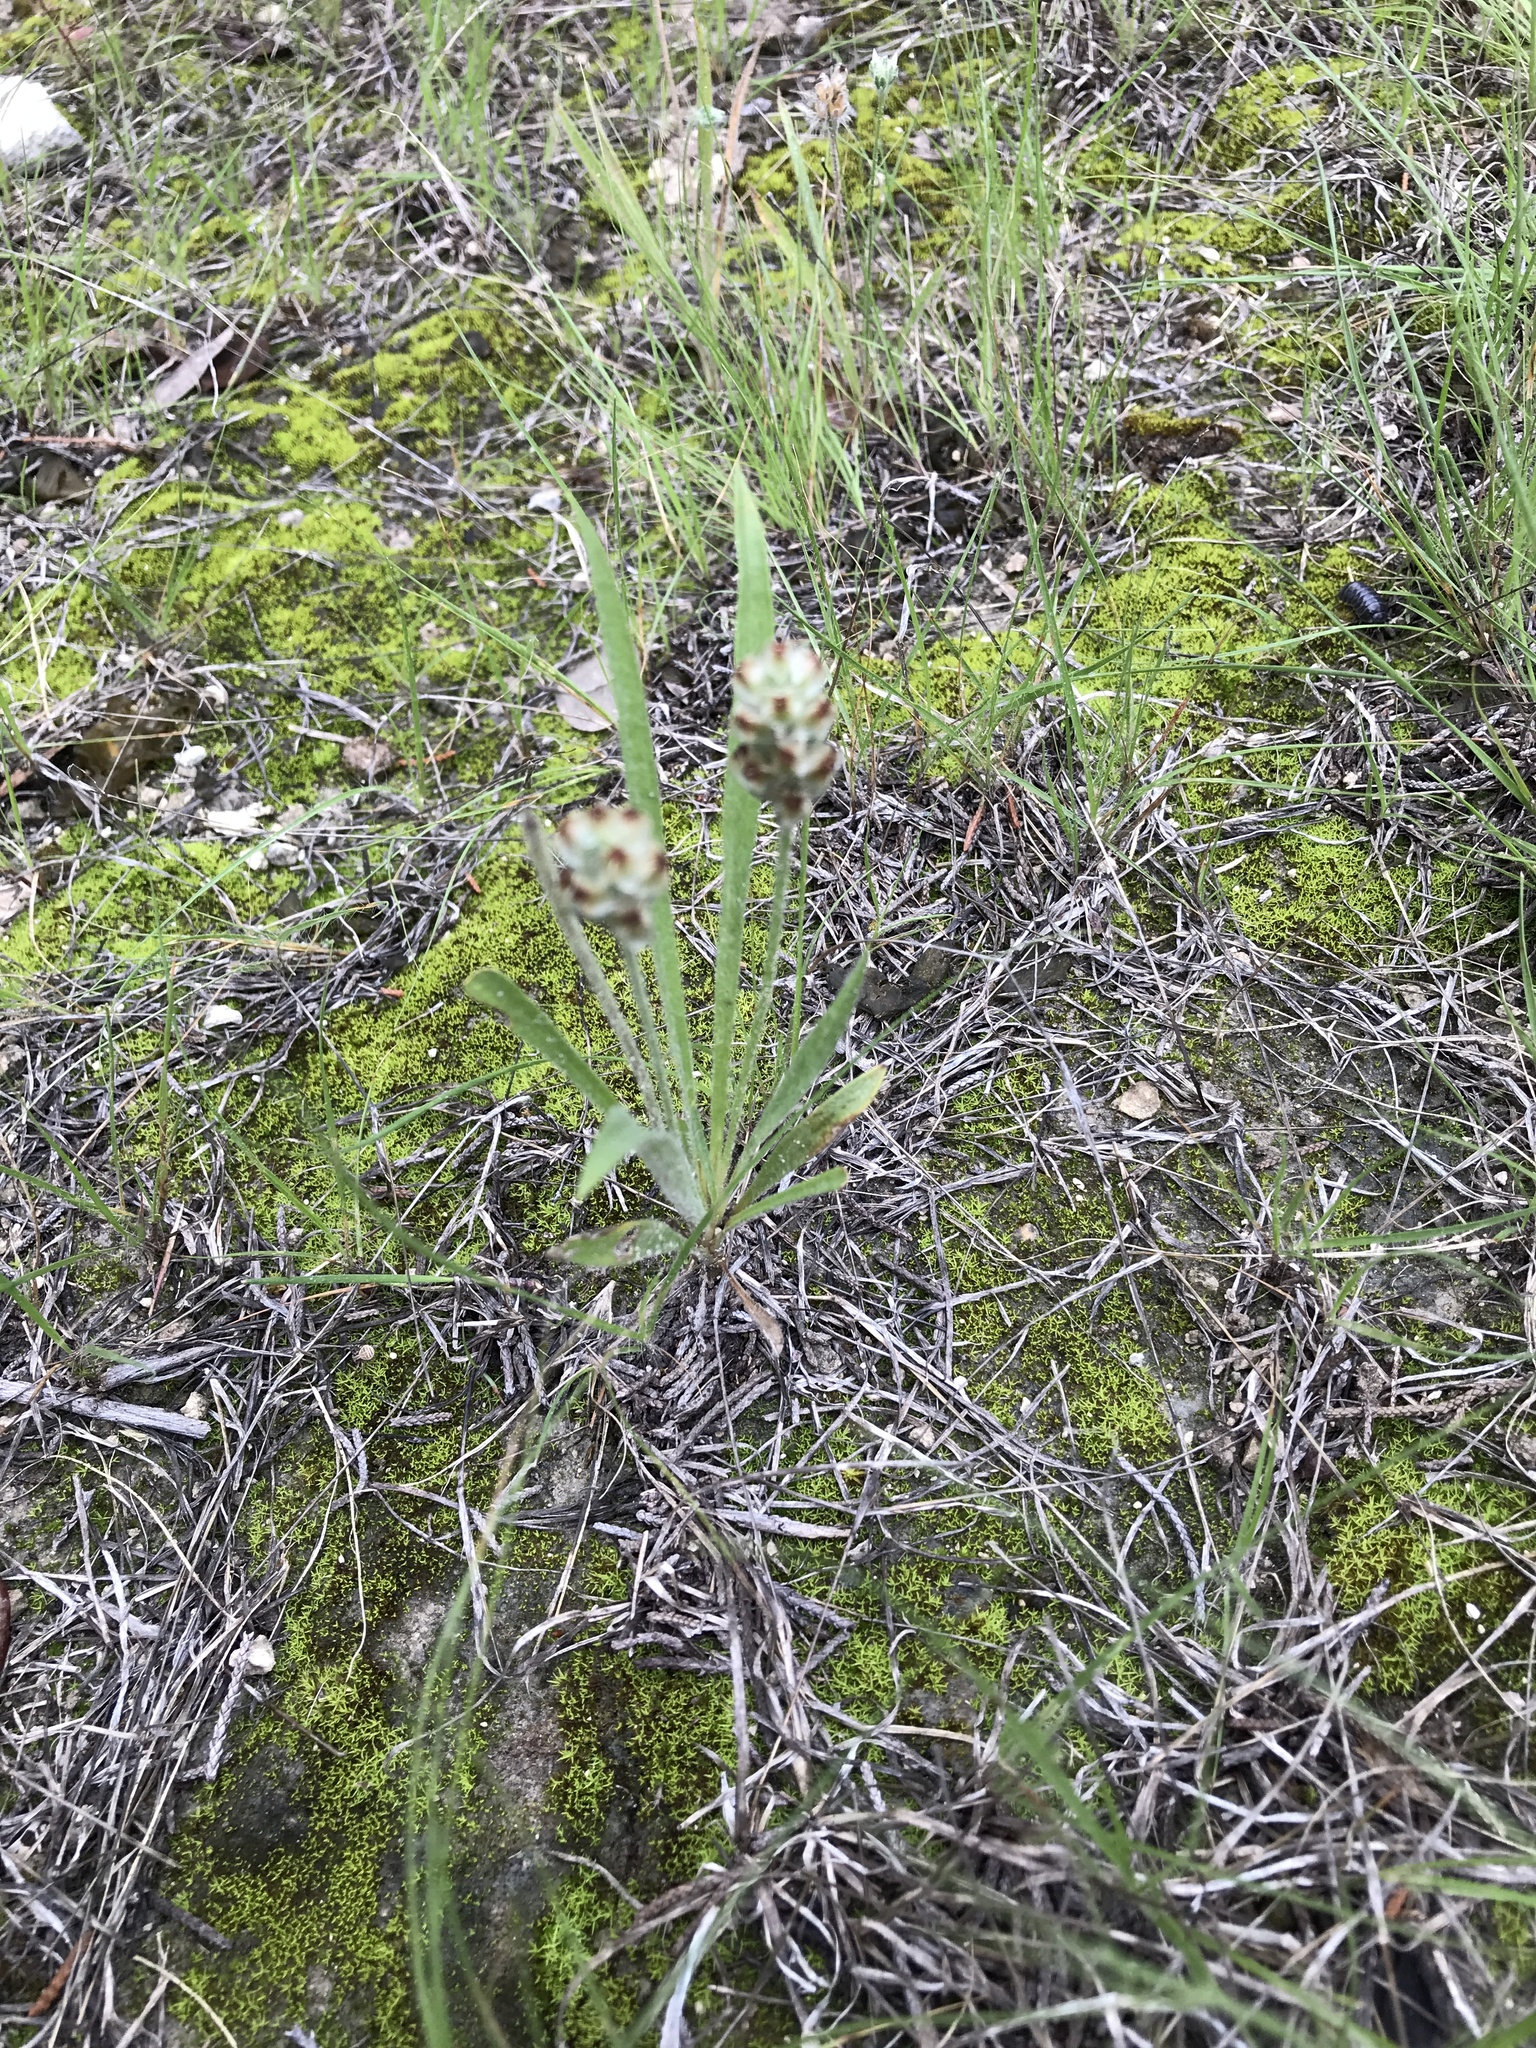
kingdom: Plantae
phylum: Tracheophyta
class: Magnoliopsida
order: Lamiales
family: Plantaginaceae
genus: Plantago
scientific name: Plantago helleri
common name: Heller's plantain
